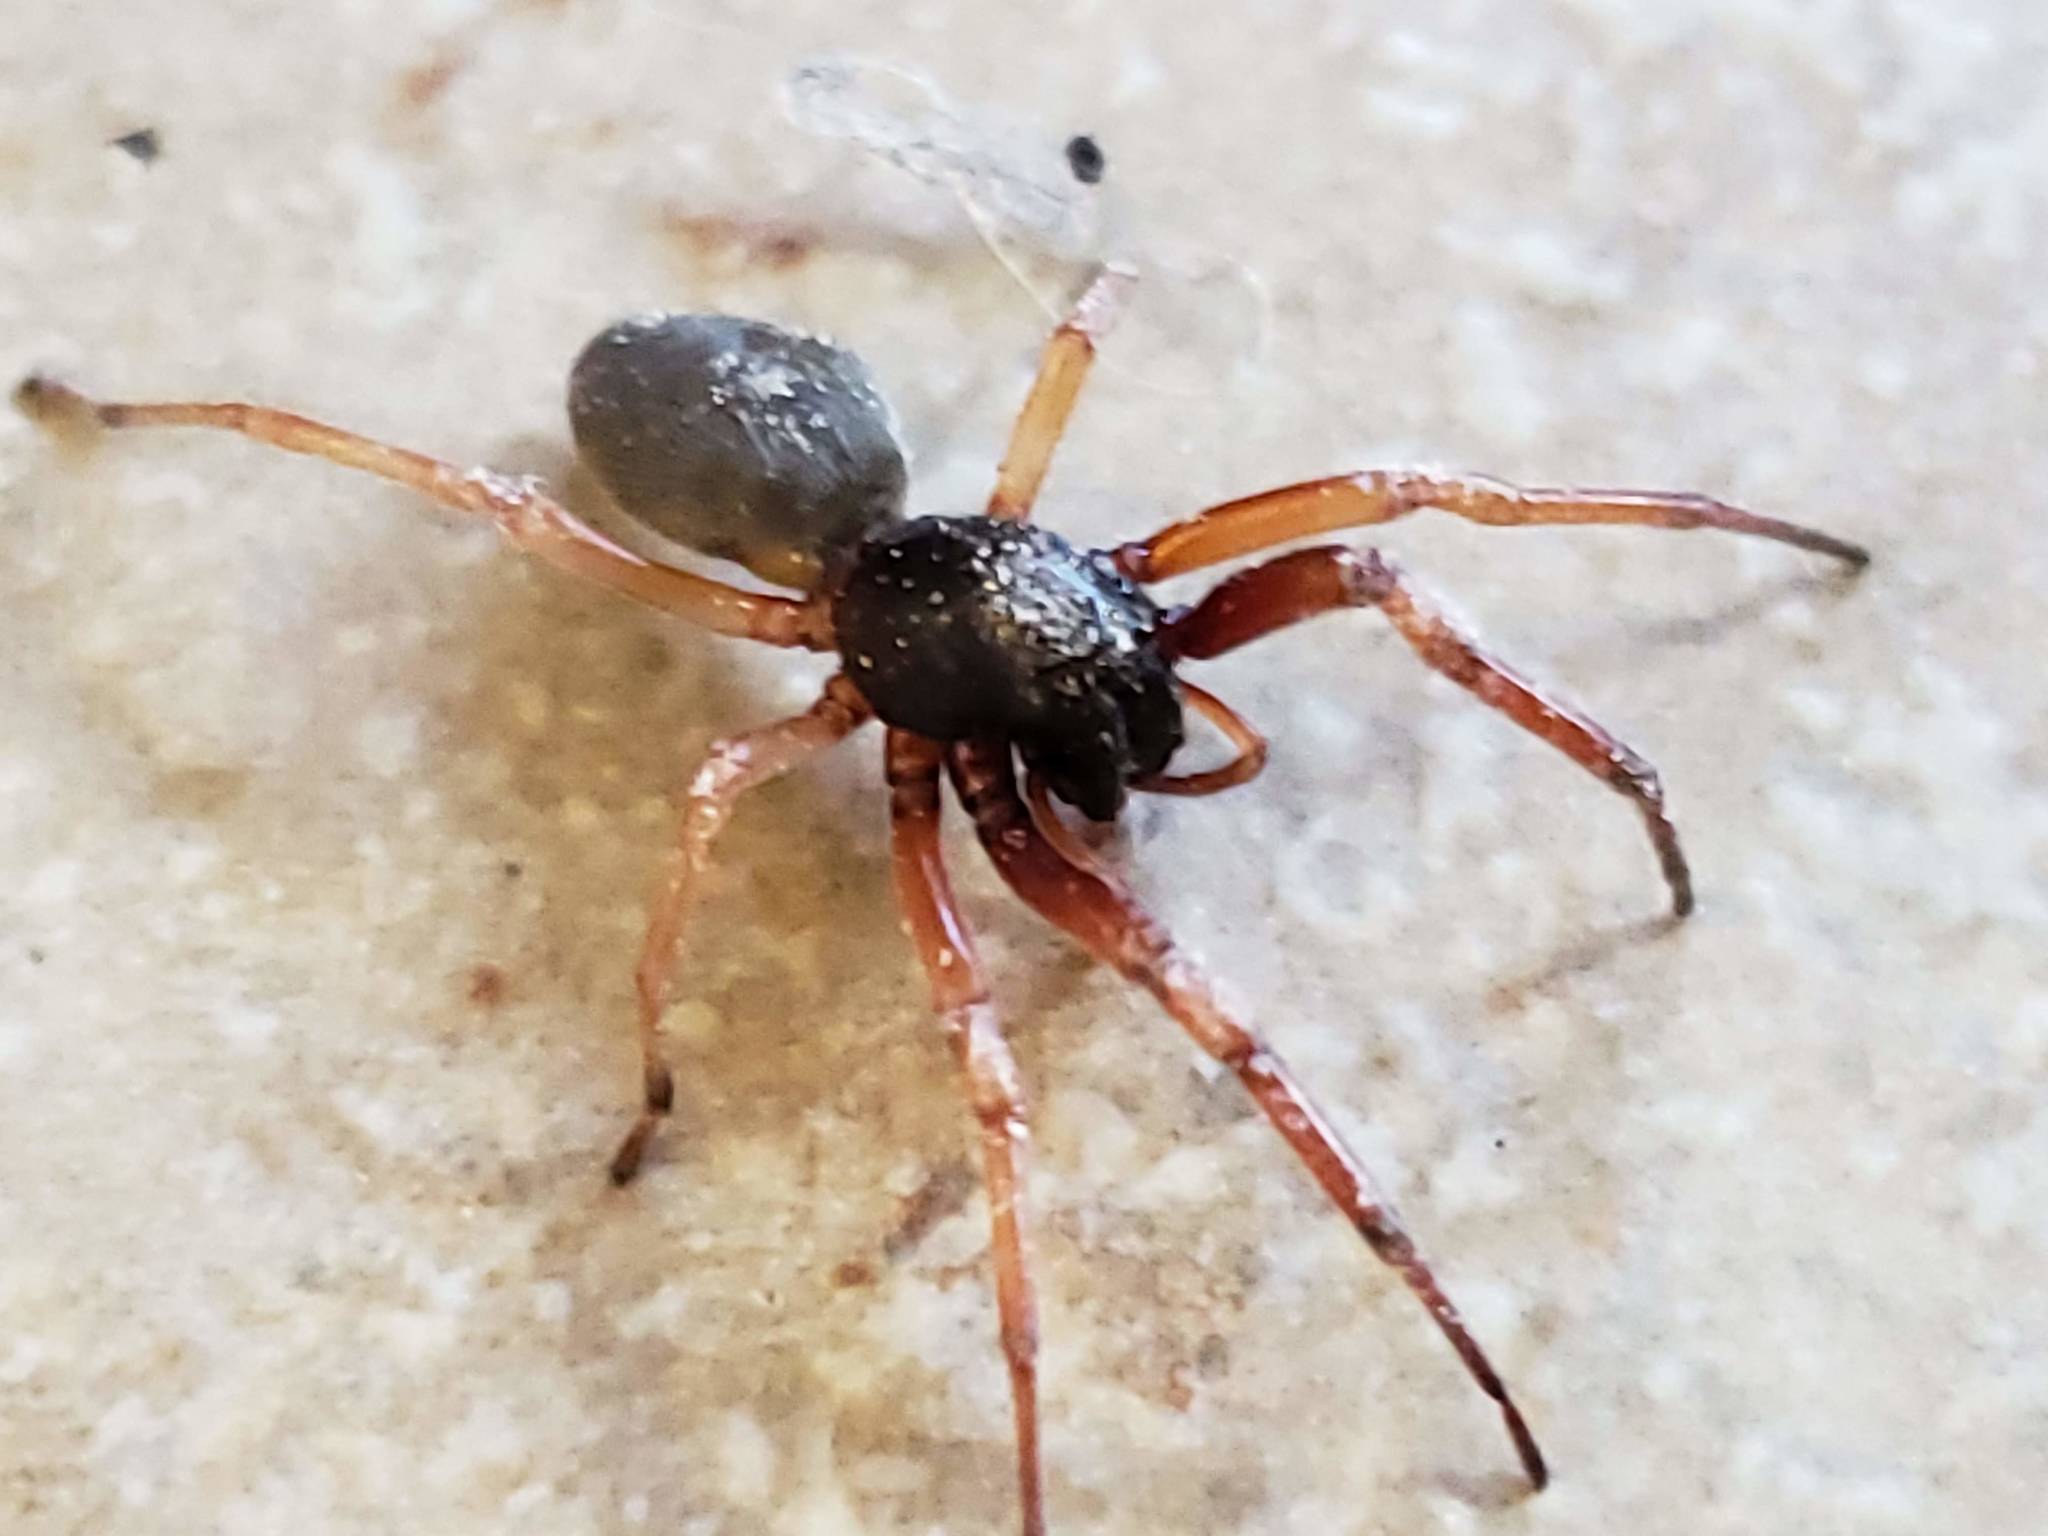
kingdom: Animalia
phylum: Arthropoda
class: Arachnida
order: Araneae
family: Trachelidae
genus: Trachelas
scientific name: Trachelas tranquillus
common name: Broad-faced sac spider
